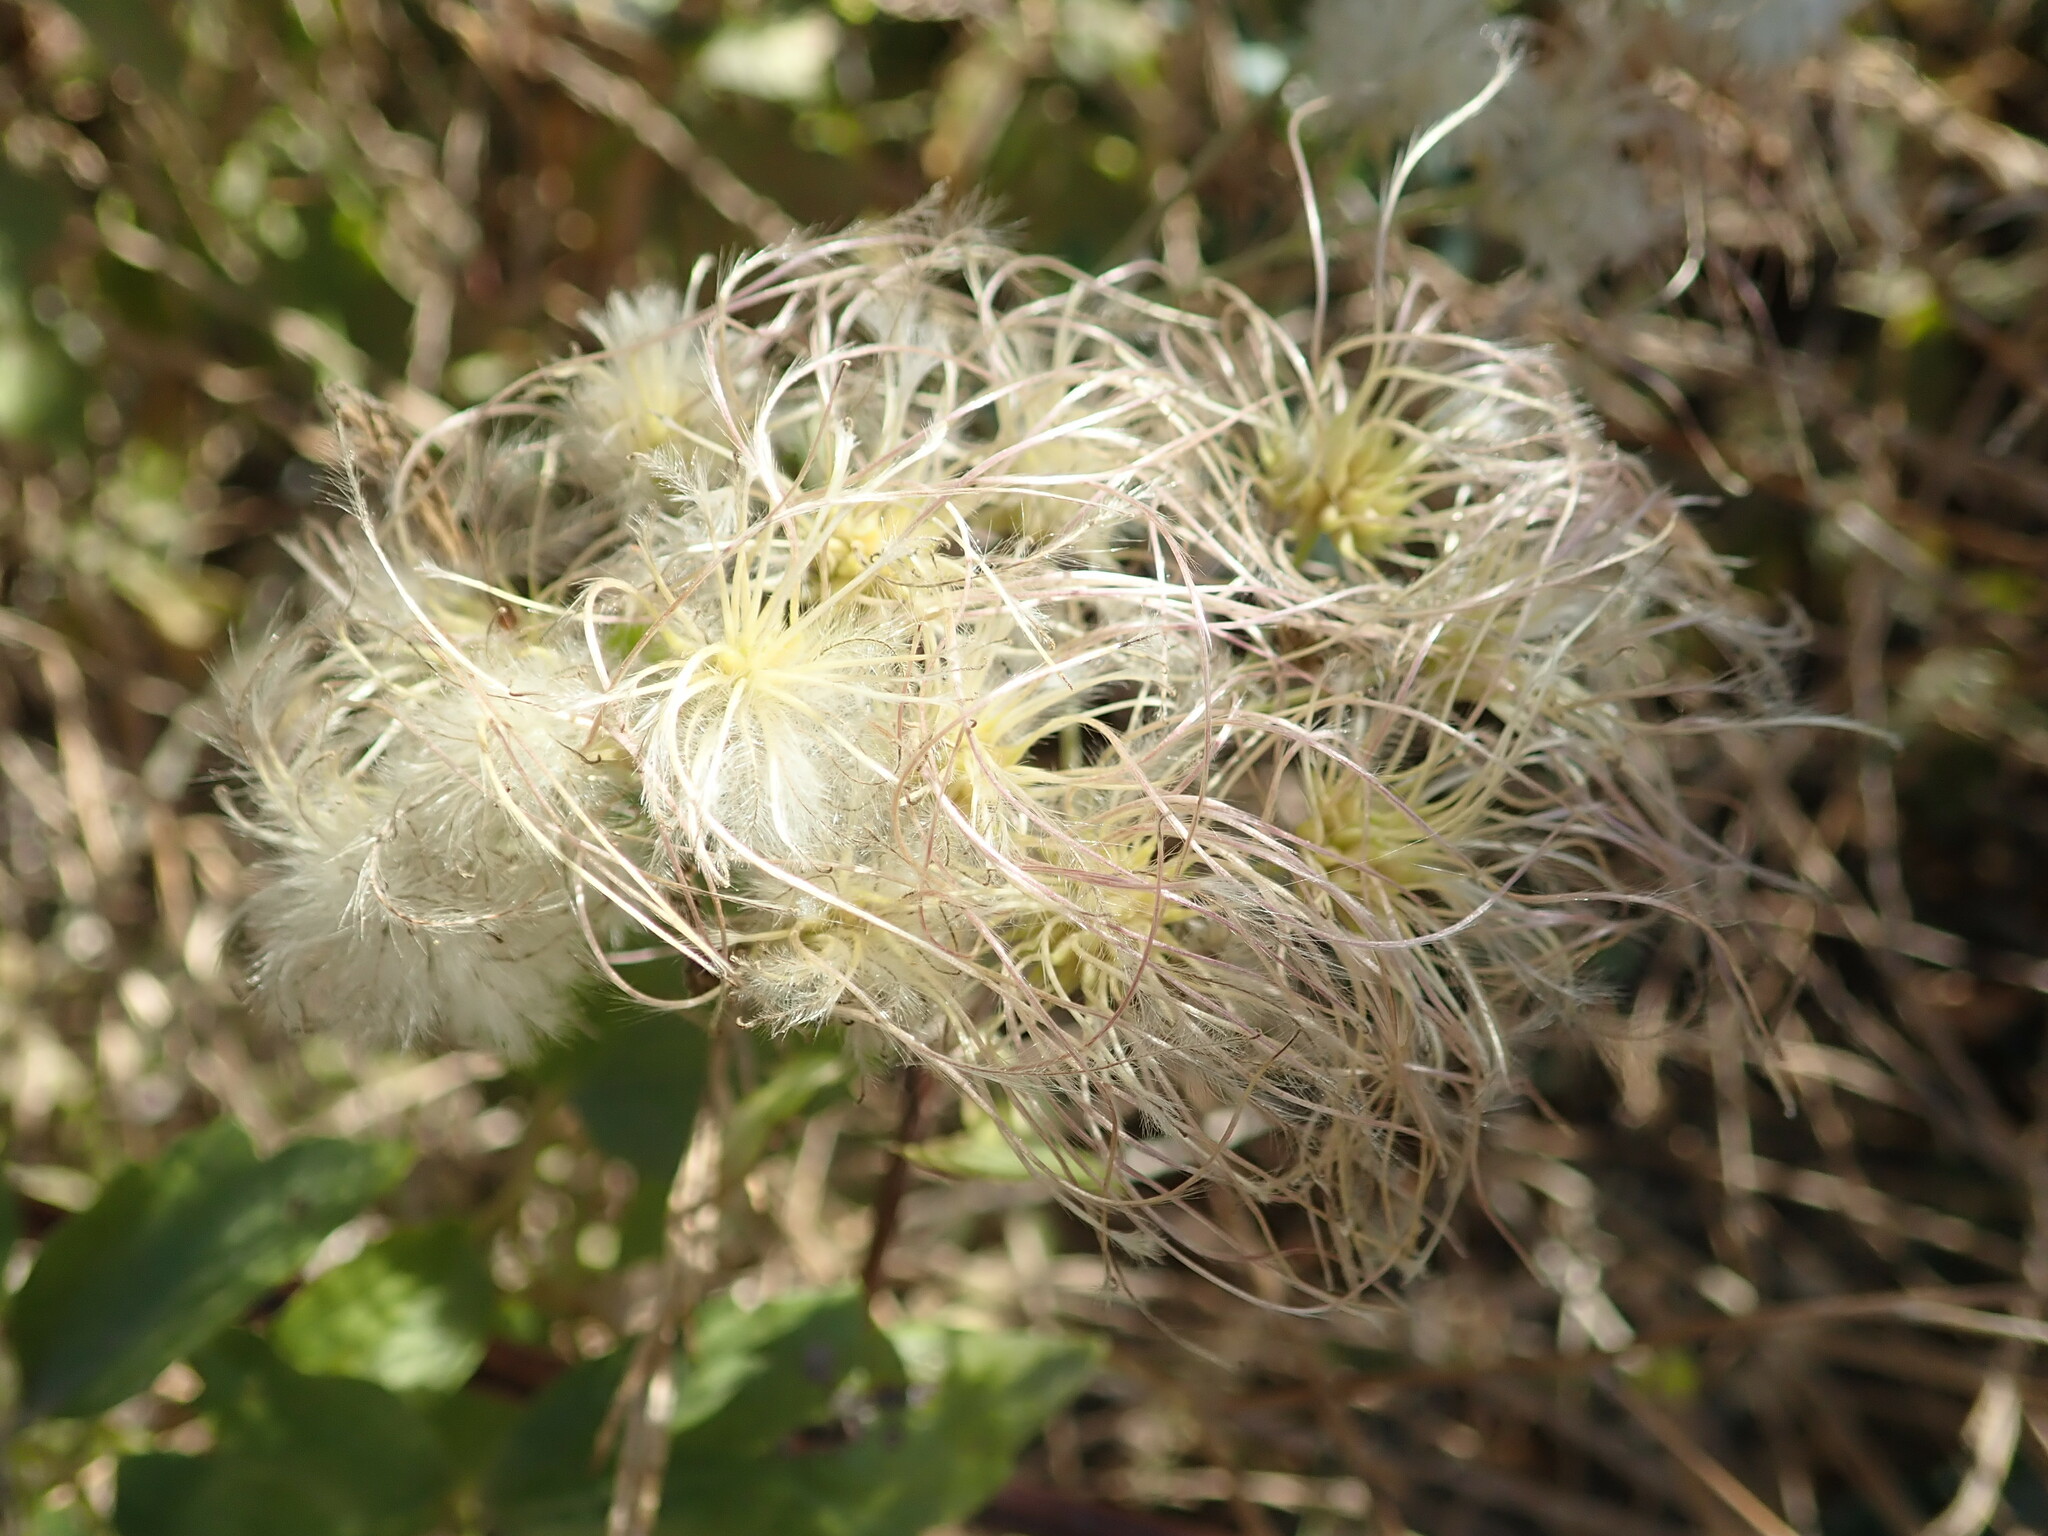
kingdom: Plantae
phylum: Tracheophyta
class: Magnoliopsida
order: Ranunculales
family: Ranunculaceae
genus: Clematis
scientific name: Clematis ligusticifolia
